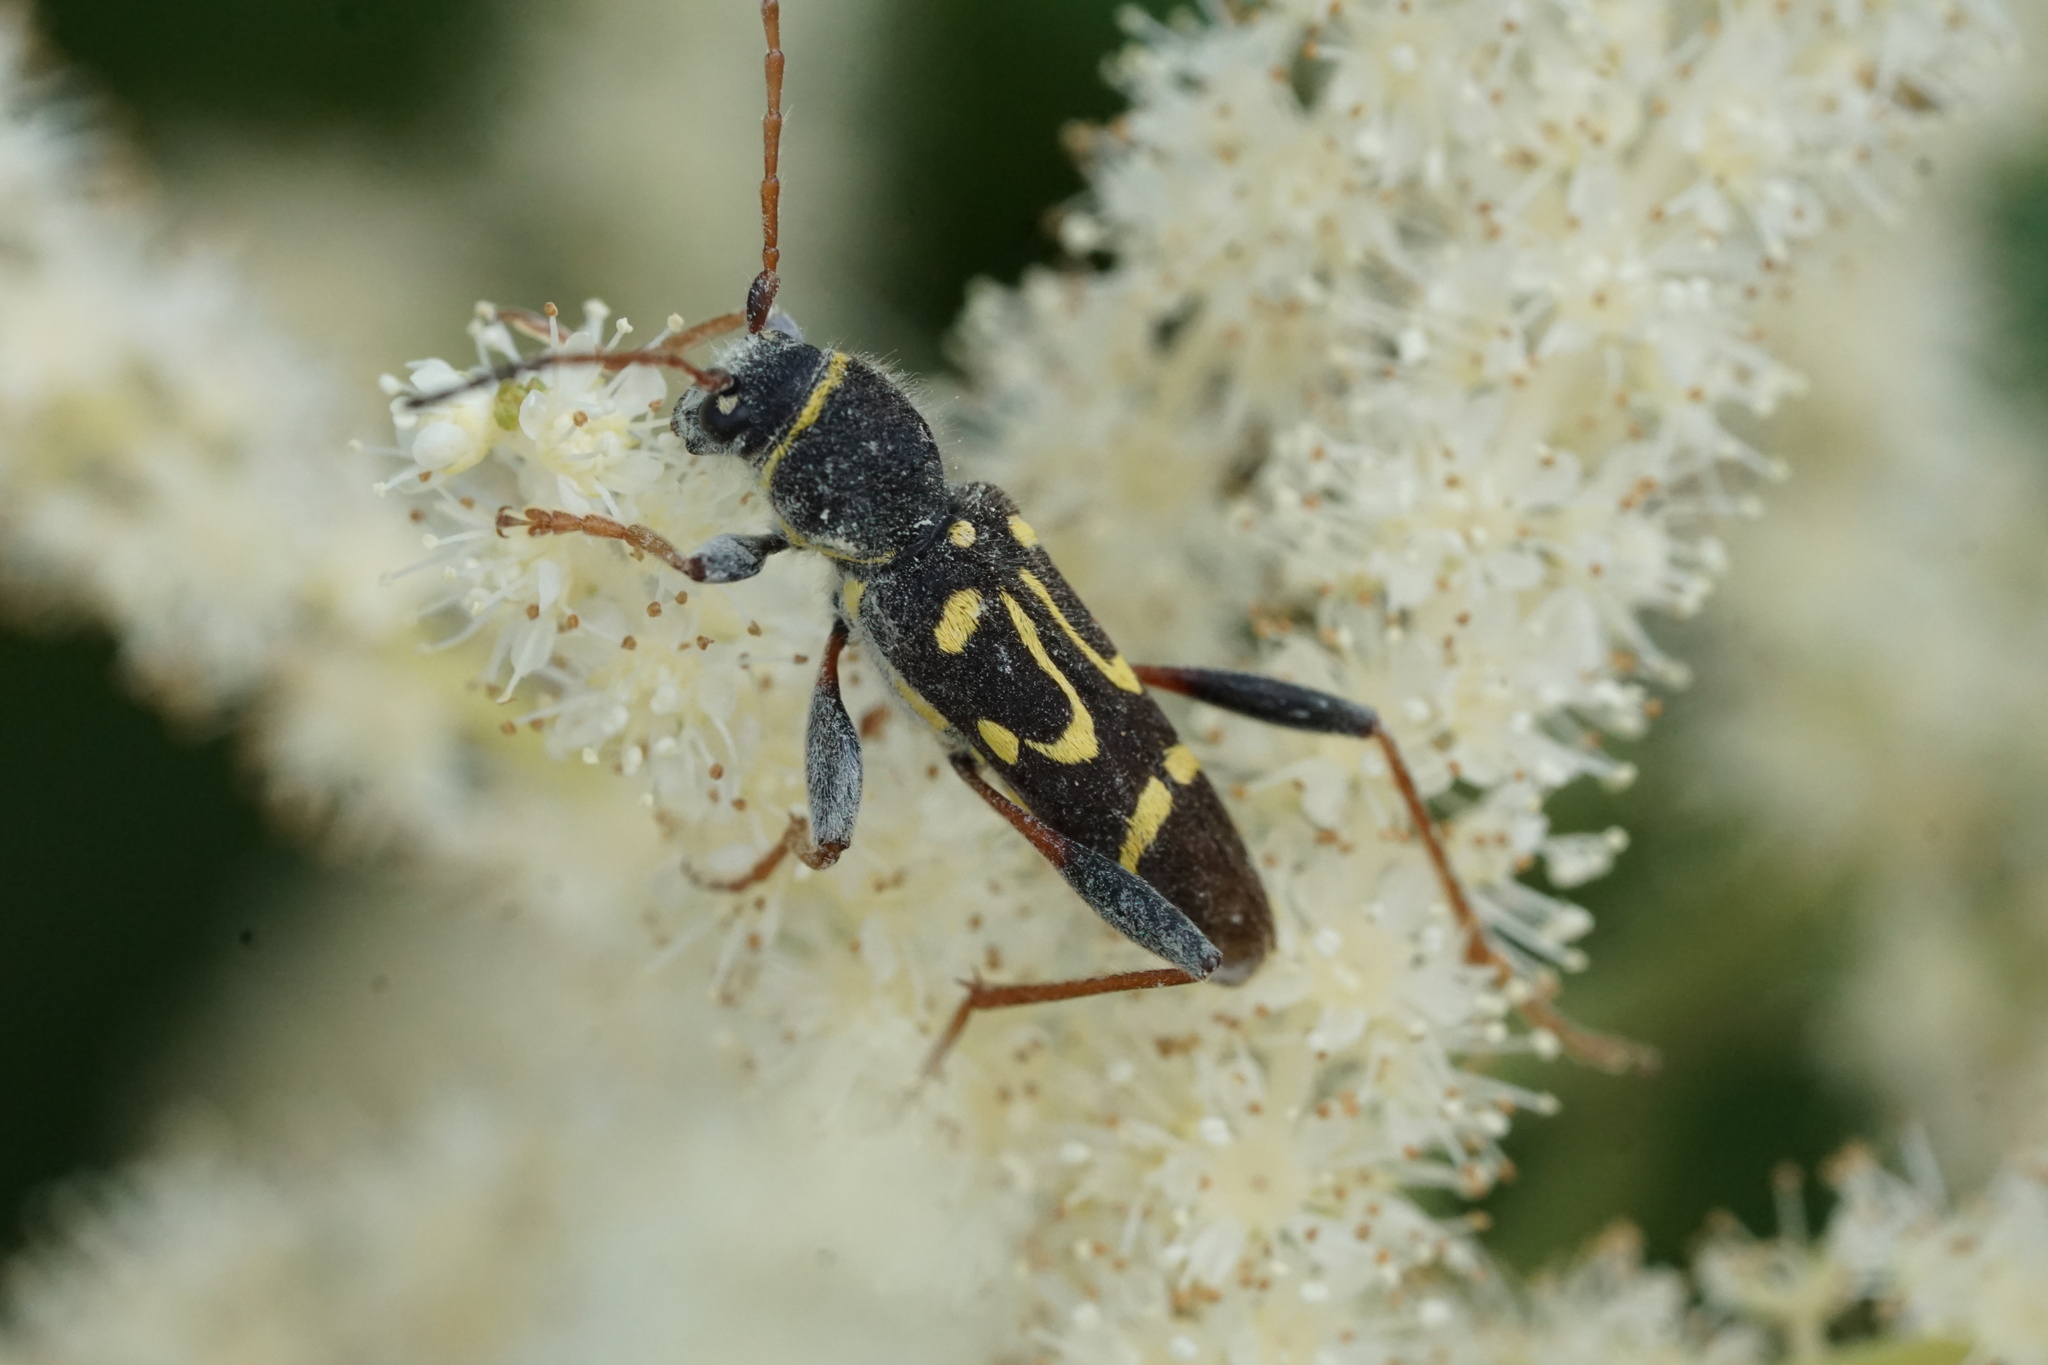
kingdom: Animalia
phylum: Arthropoda
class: Insecta
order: Coleoptera
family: Cerambycidae
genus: Clytus
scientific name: Clytus ruricola
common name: Round-necked longhorn beetle
